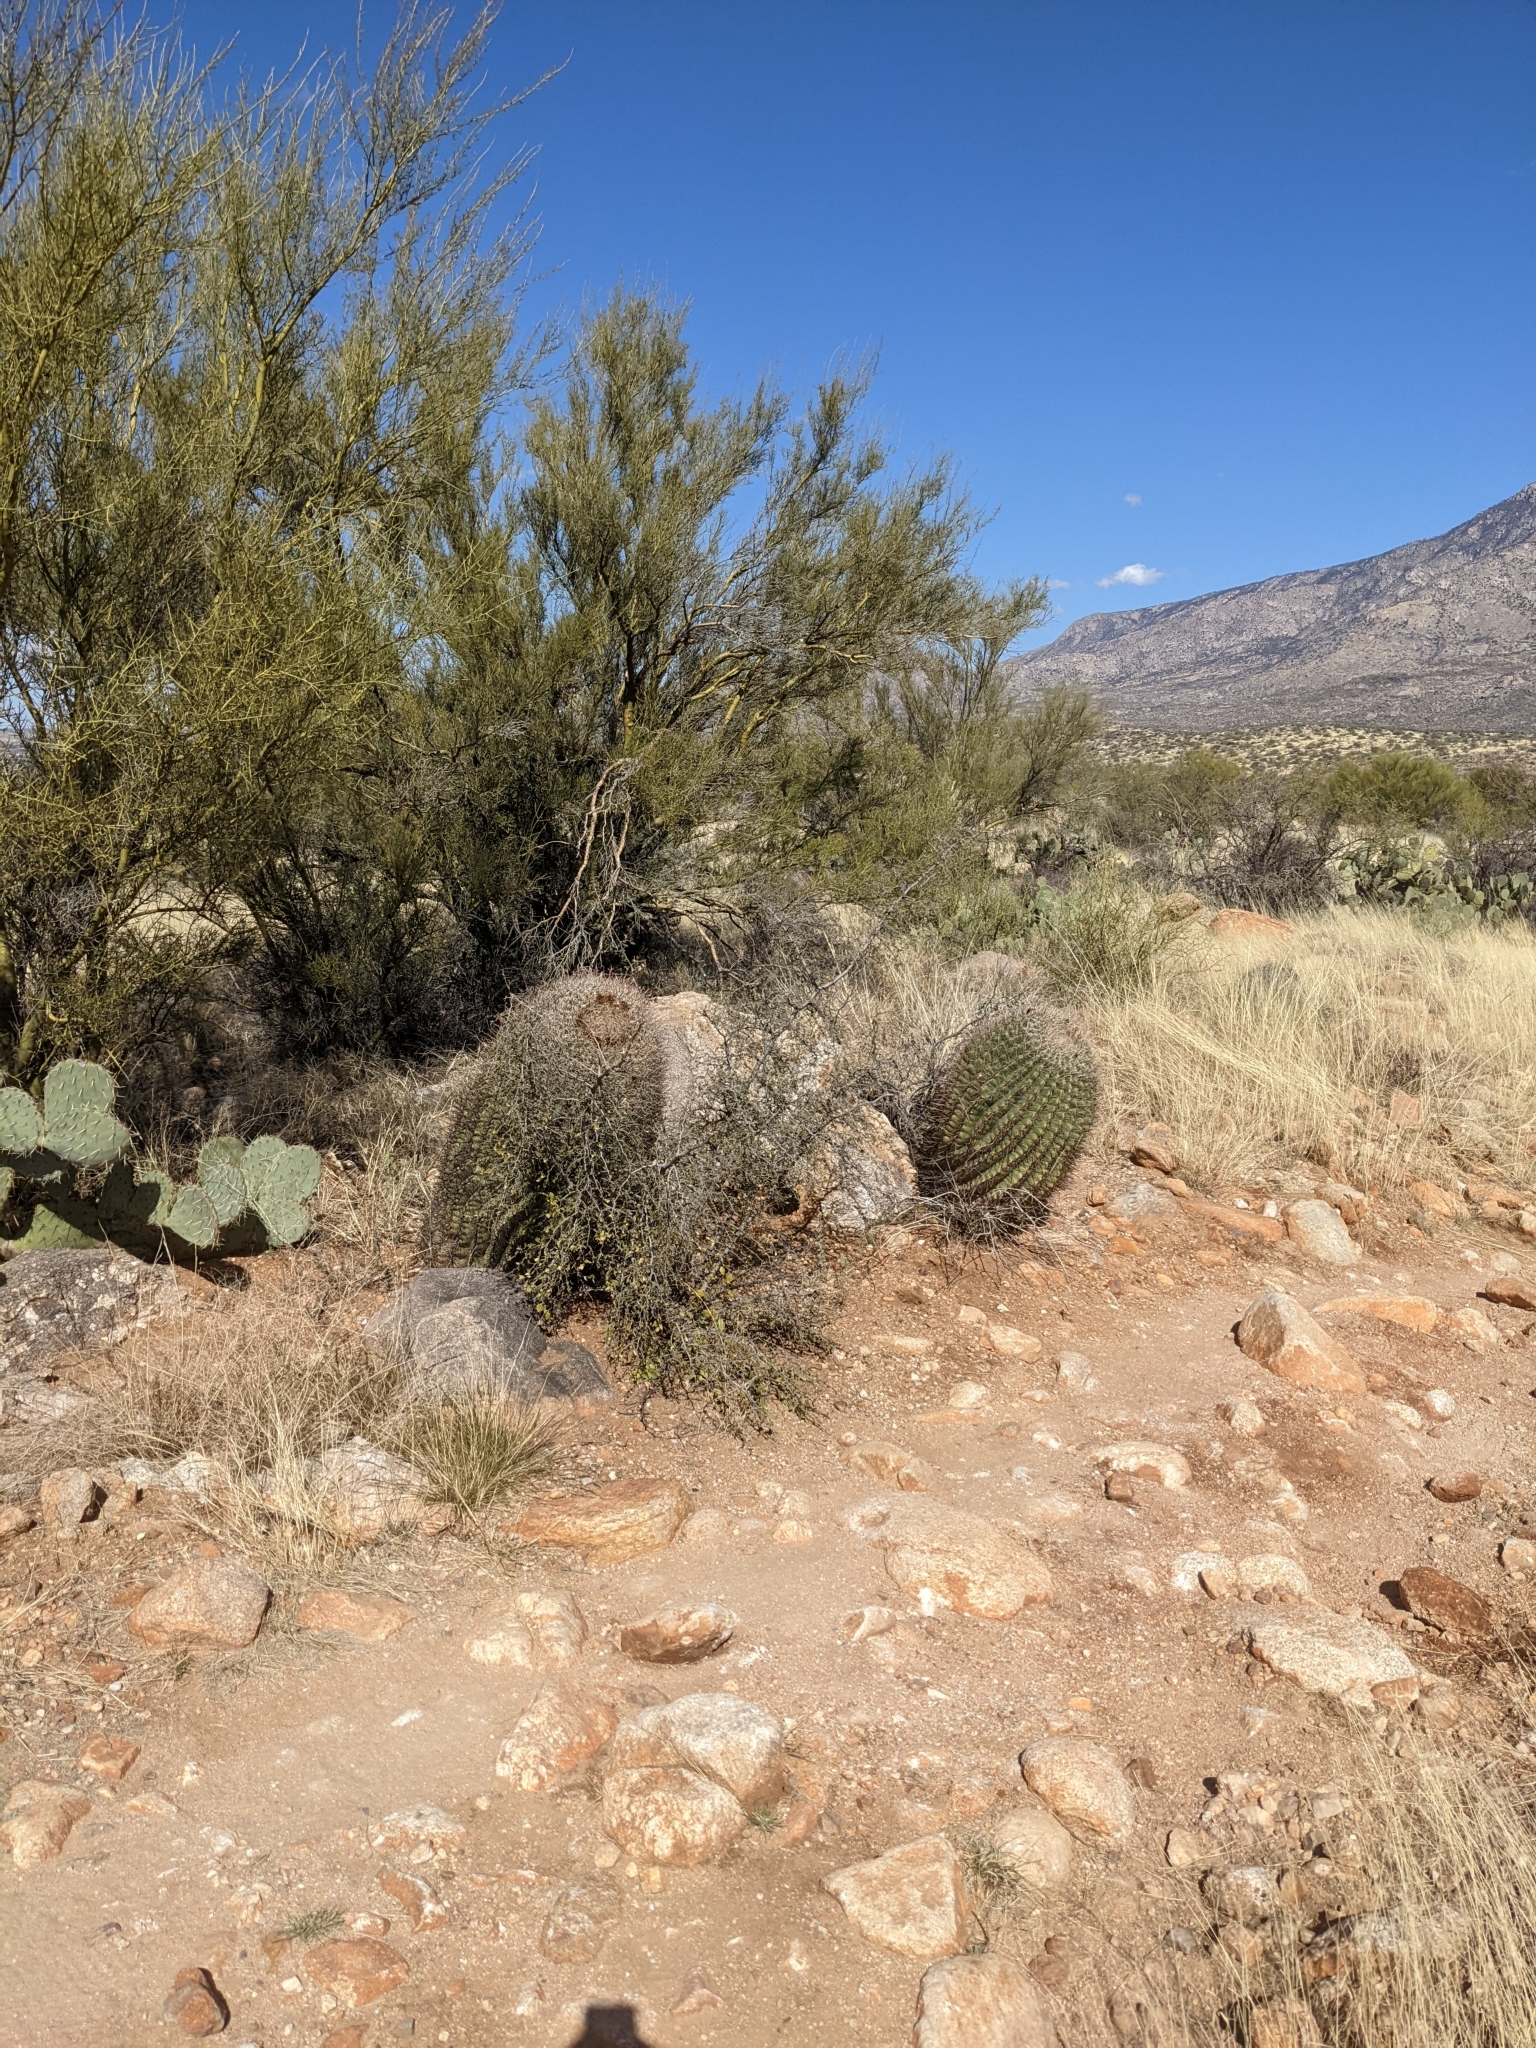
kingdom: Plantae
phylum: Tracheophyta
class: Magnoliopsida
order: Caryophyllales
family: Cactaceae
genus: Ferocactus
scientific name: Ferocactus wislizeni
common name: Candy barrel cactus
